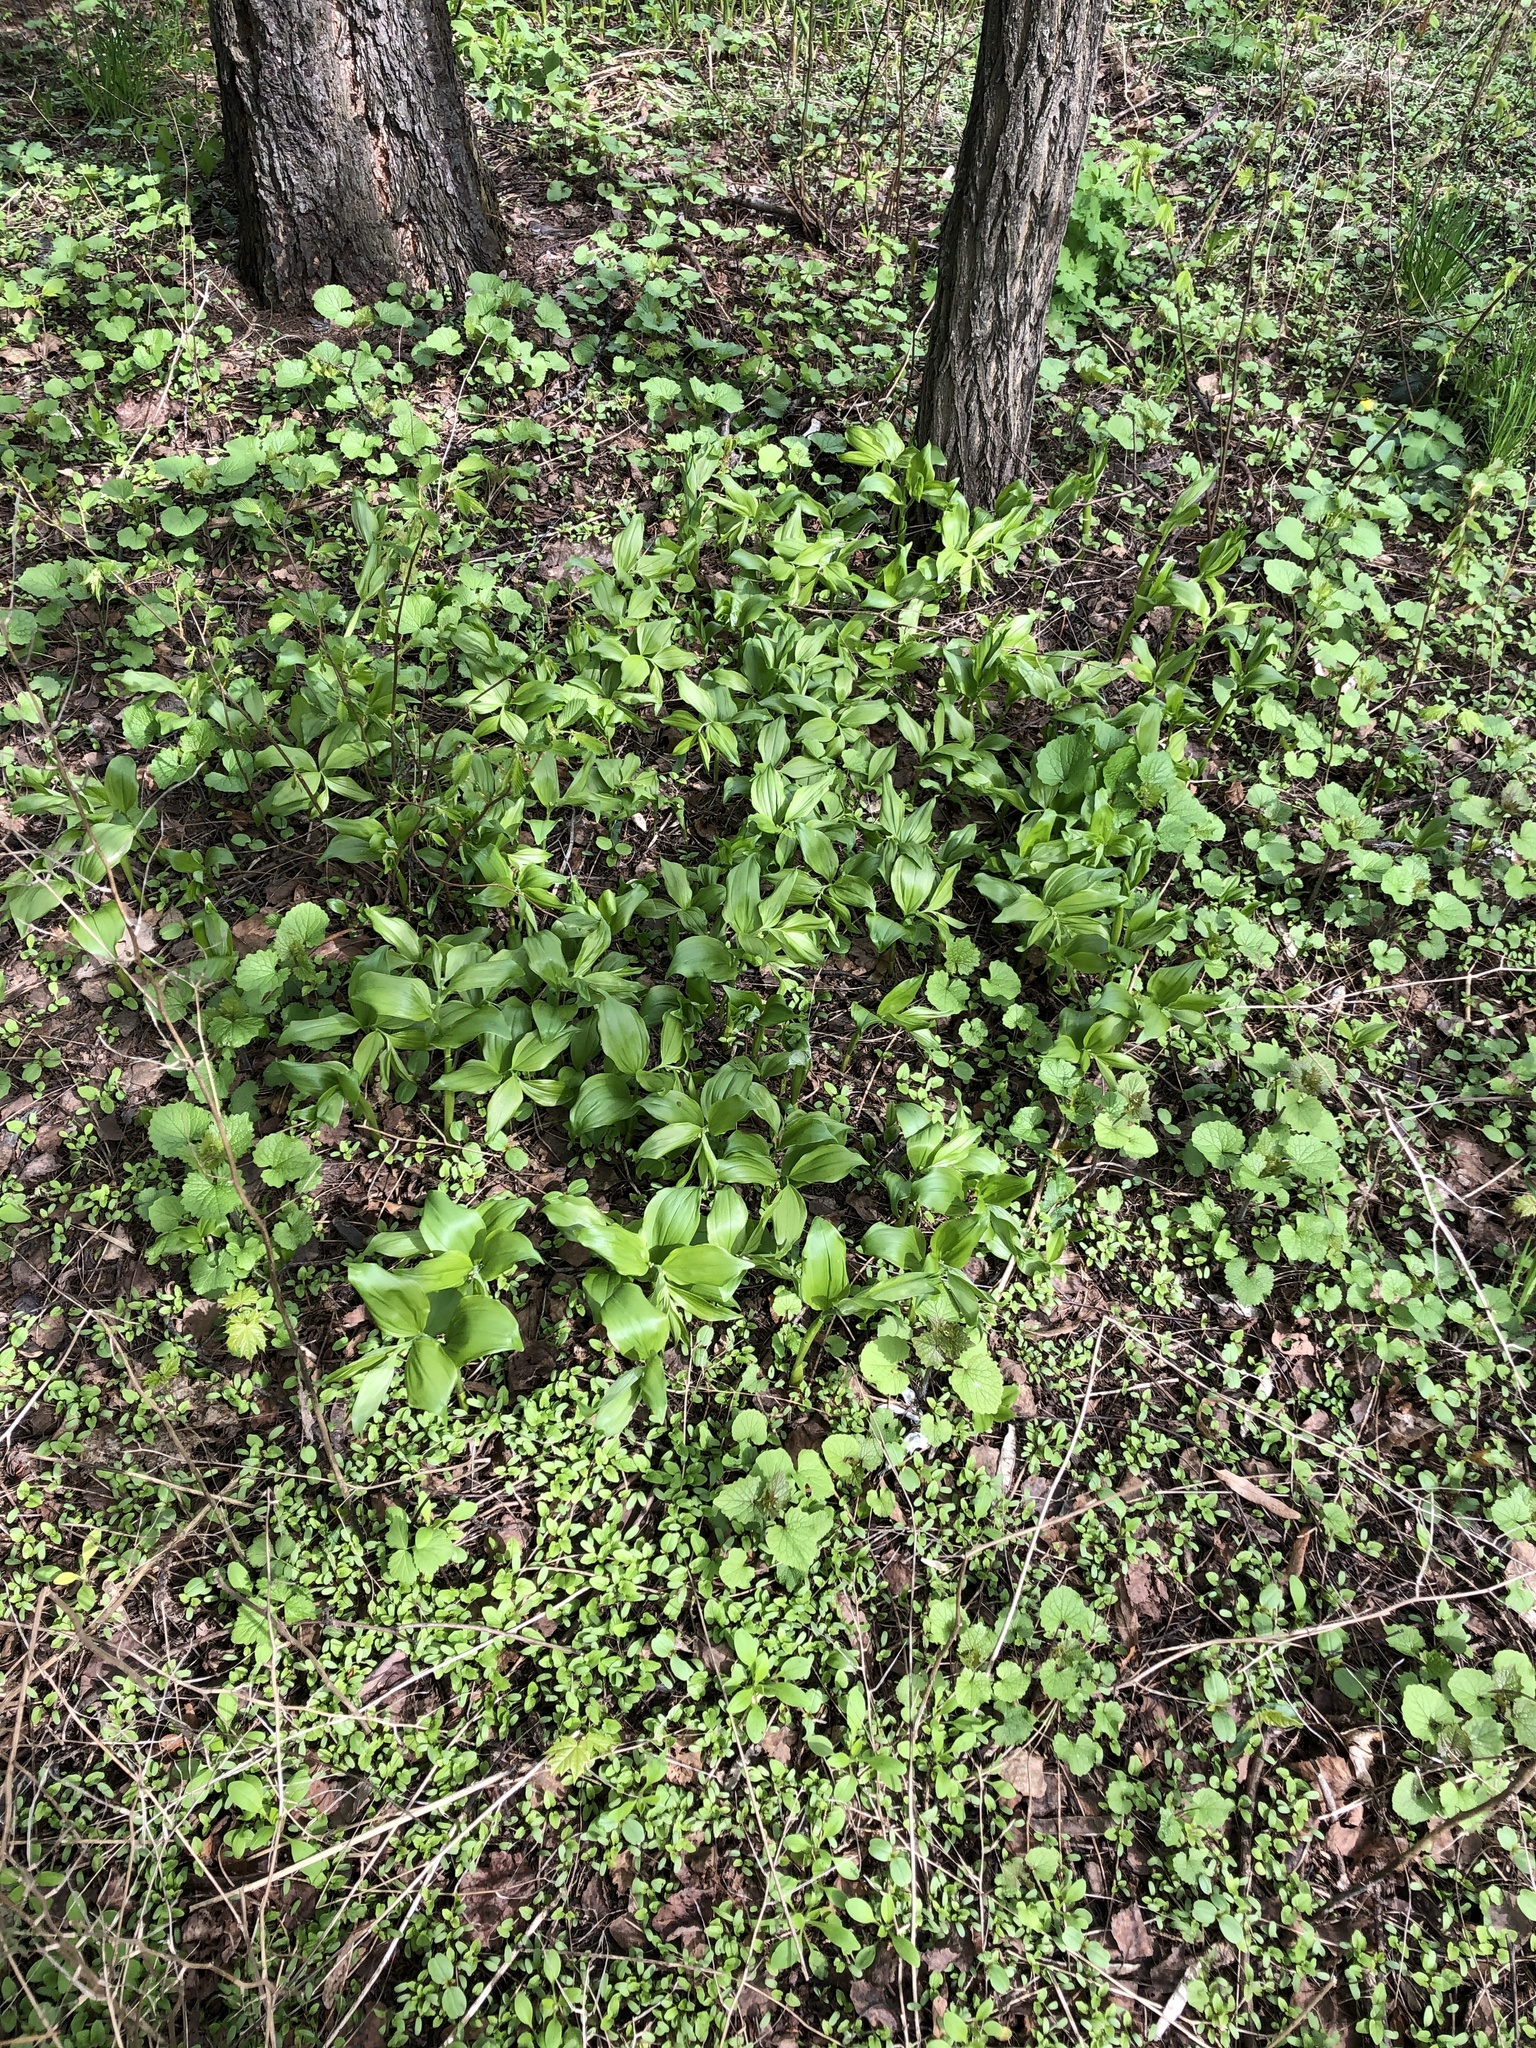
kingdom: Plantae
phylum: Tracheophyta
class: Liliopsida
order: Asparagales
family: Asparagaceae
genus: Polygonatum
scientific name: Polygonatum latifolium
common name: Broadleaf solomon's seal
